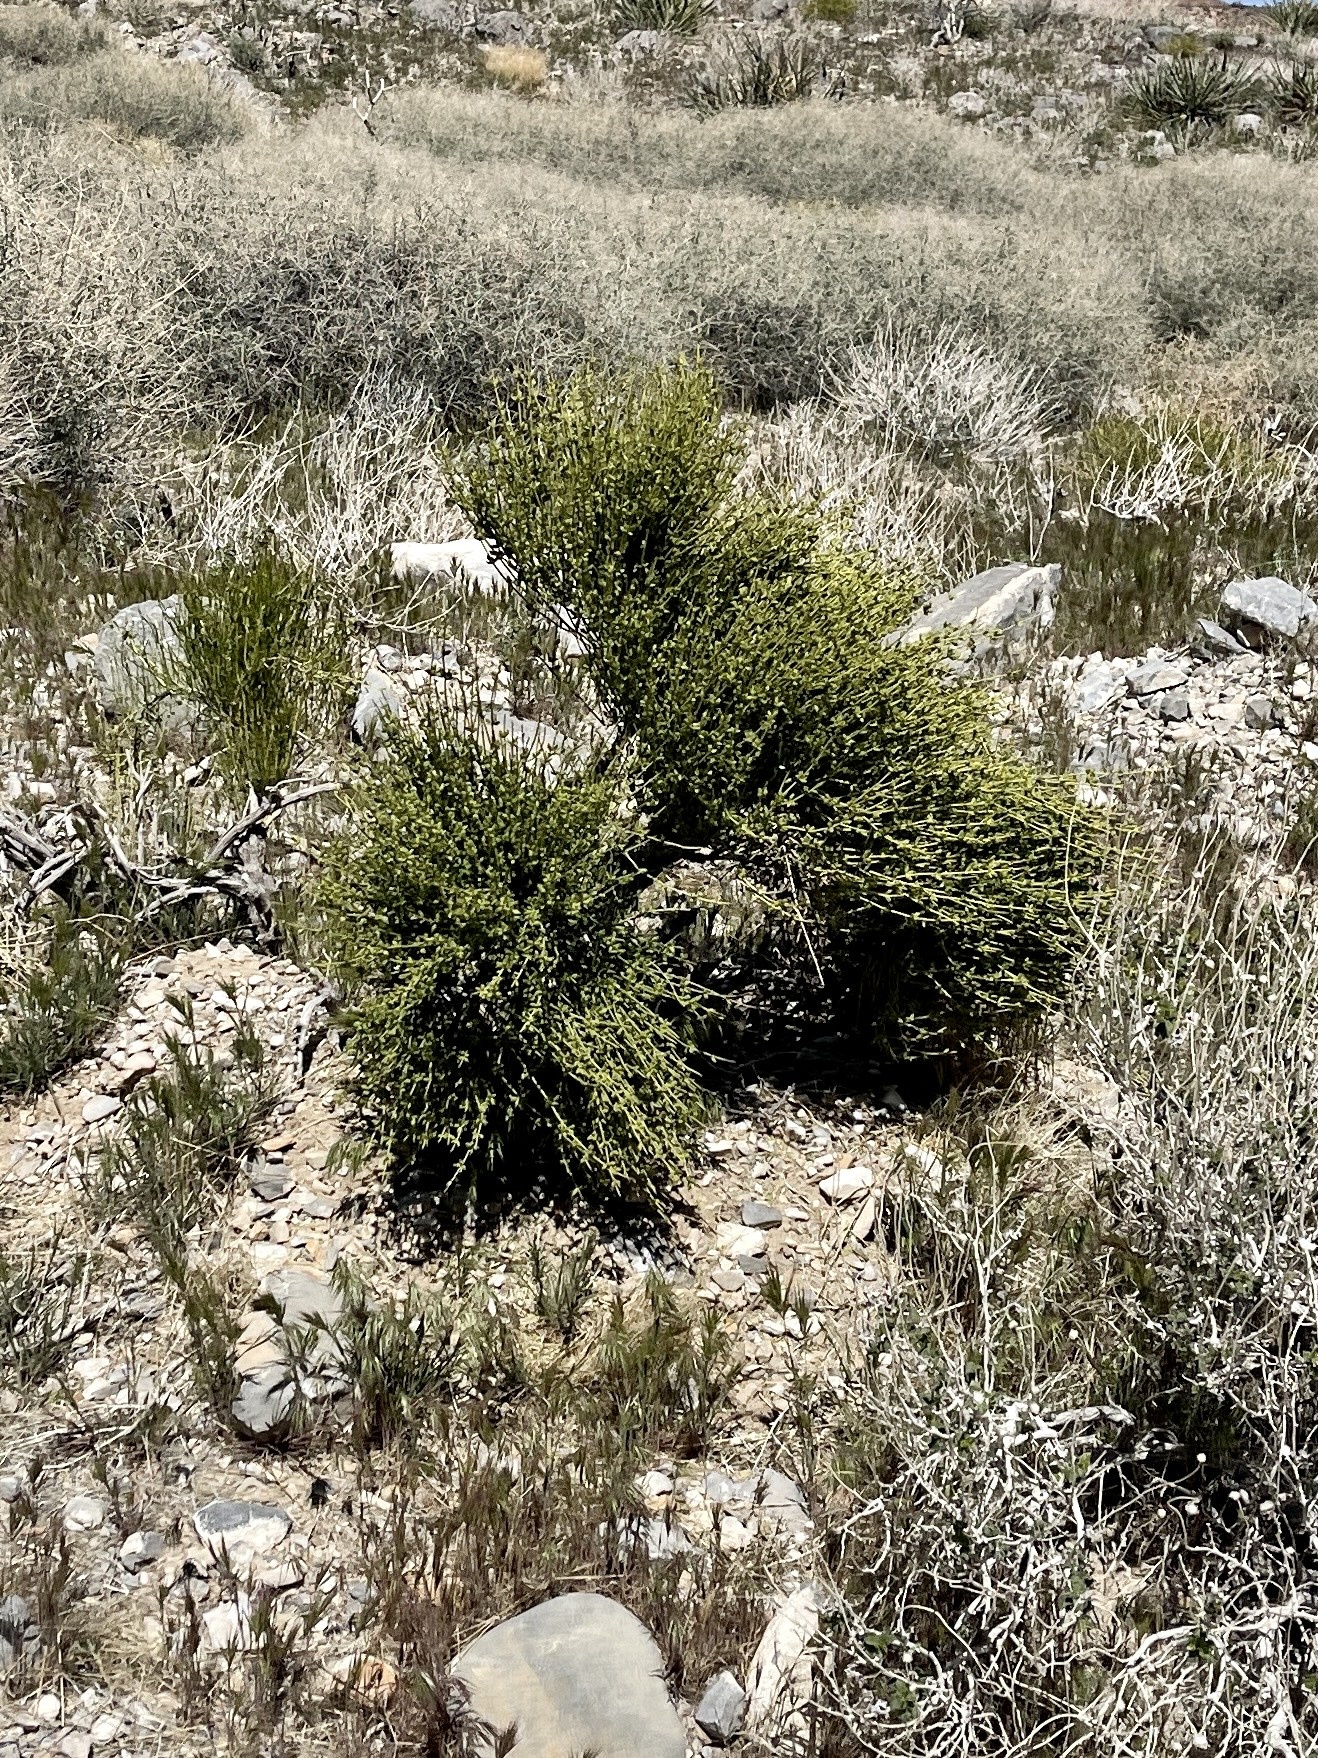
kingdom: Plantae
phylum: Tracheophyta
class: Gnetopsida
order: Ephedrales
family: Ephedraceae
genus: Ephedra
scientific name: Ephedra viridis
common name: Green ephedra
